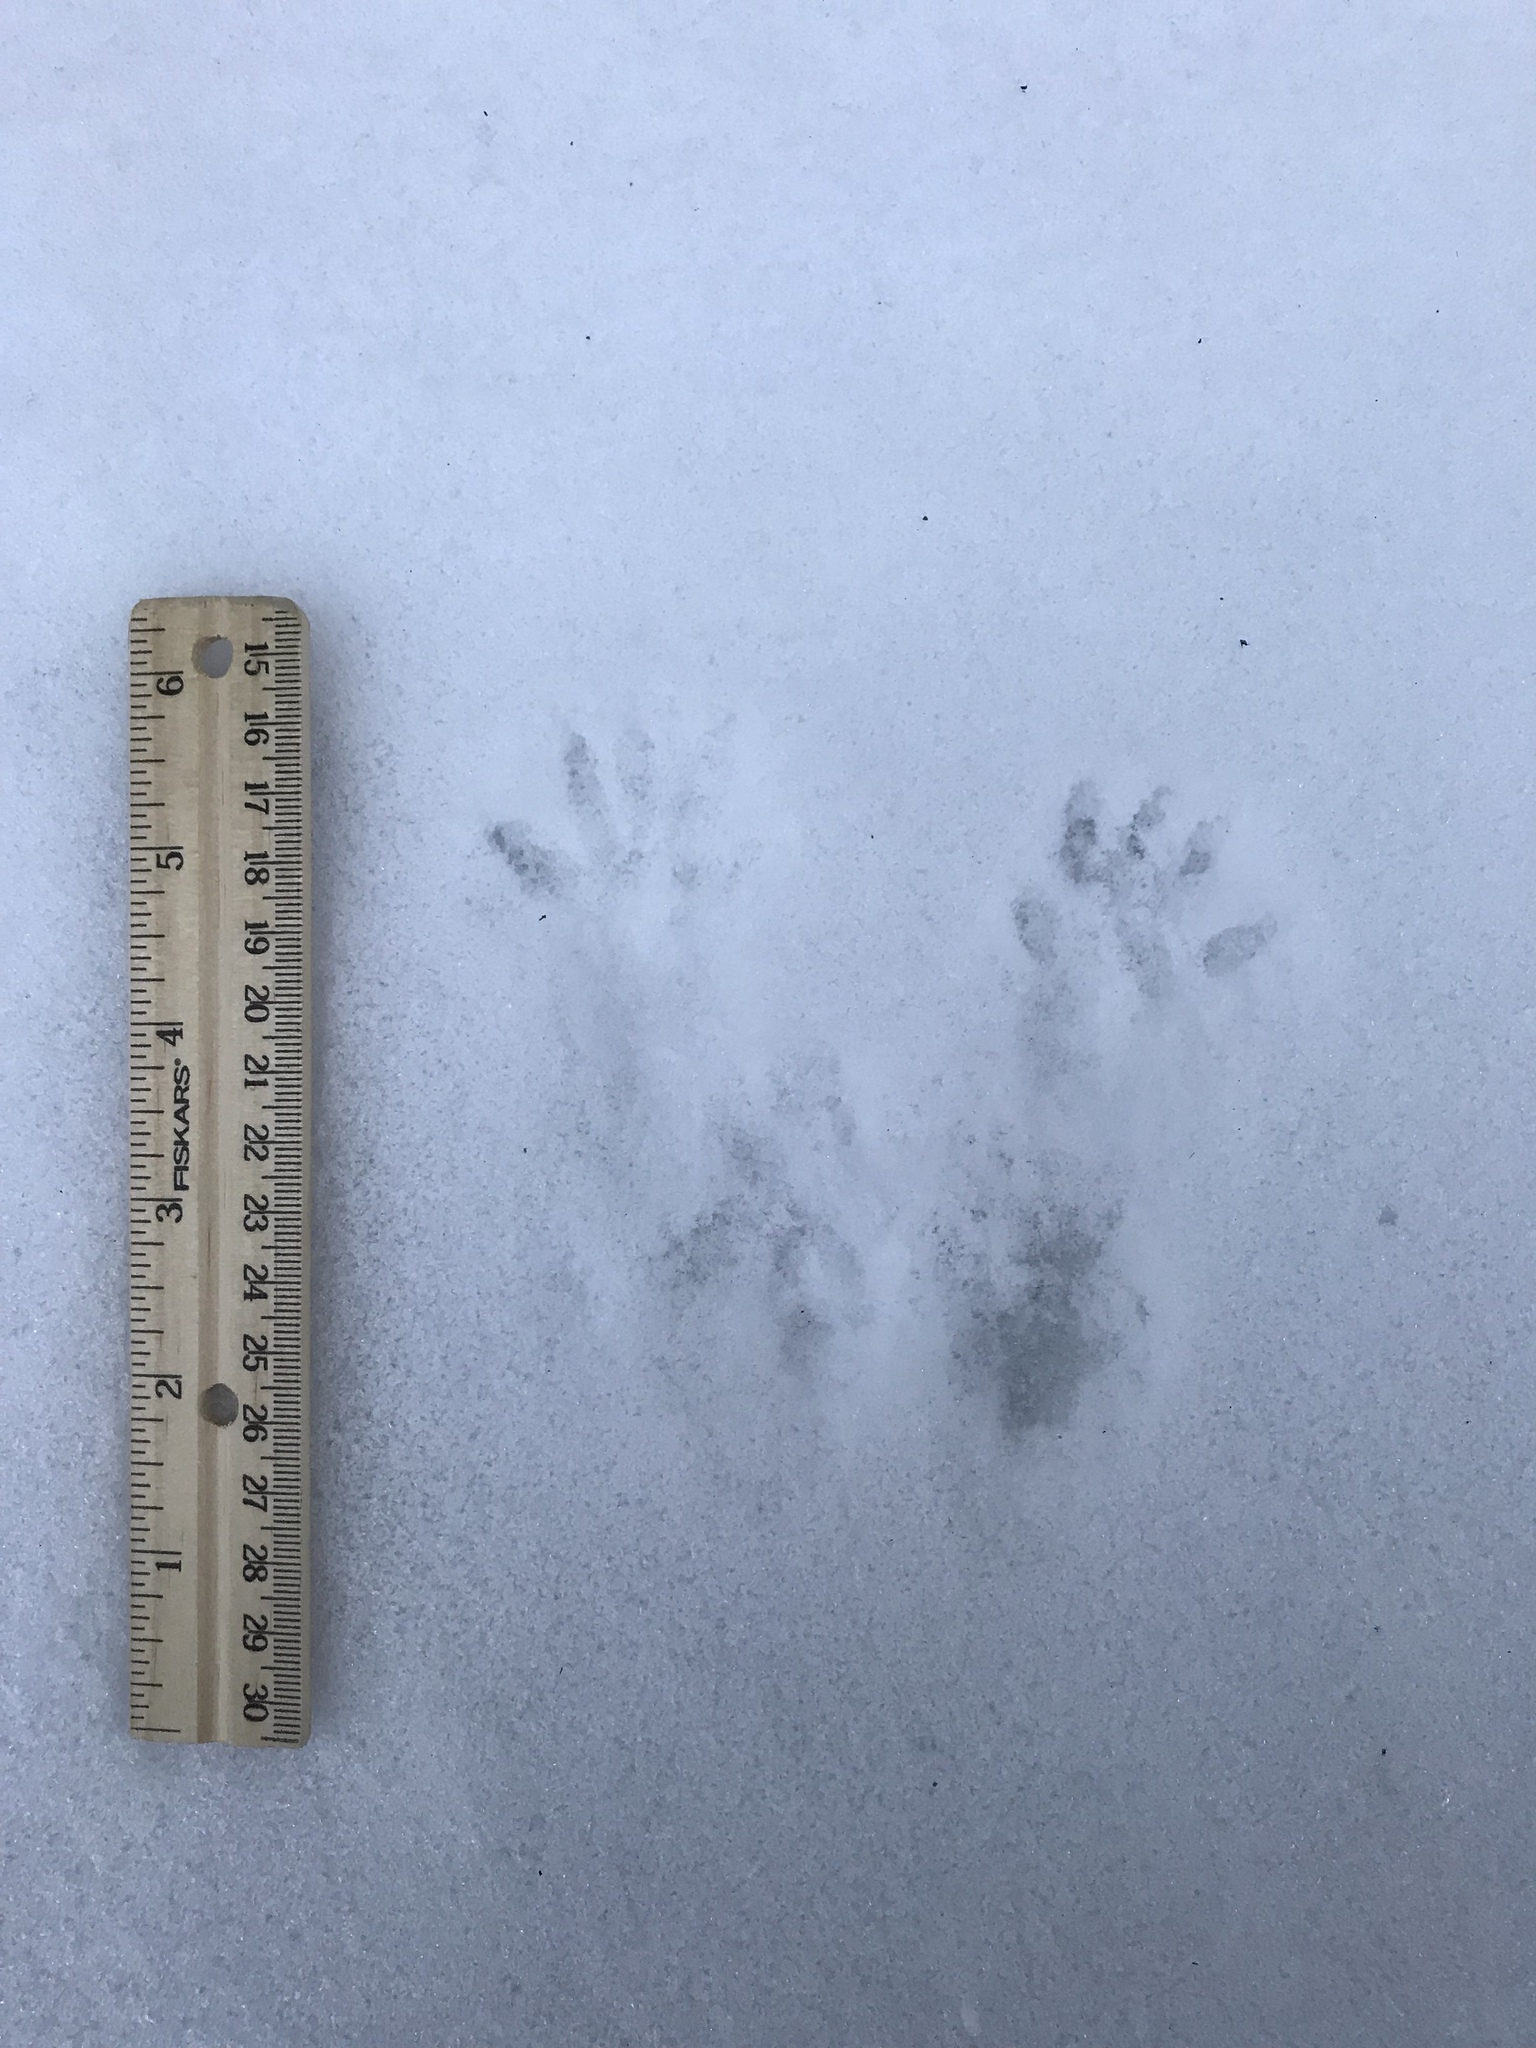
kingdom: Animalia
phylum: Chordata
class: Mammalia
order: Rodentia
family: Sciuridae
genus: Sciurus
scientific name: Sciurus niger
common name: Fox squirrel
